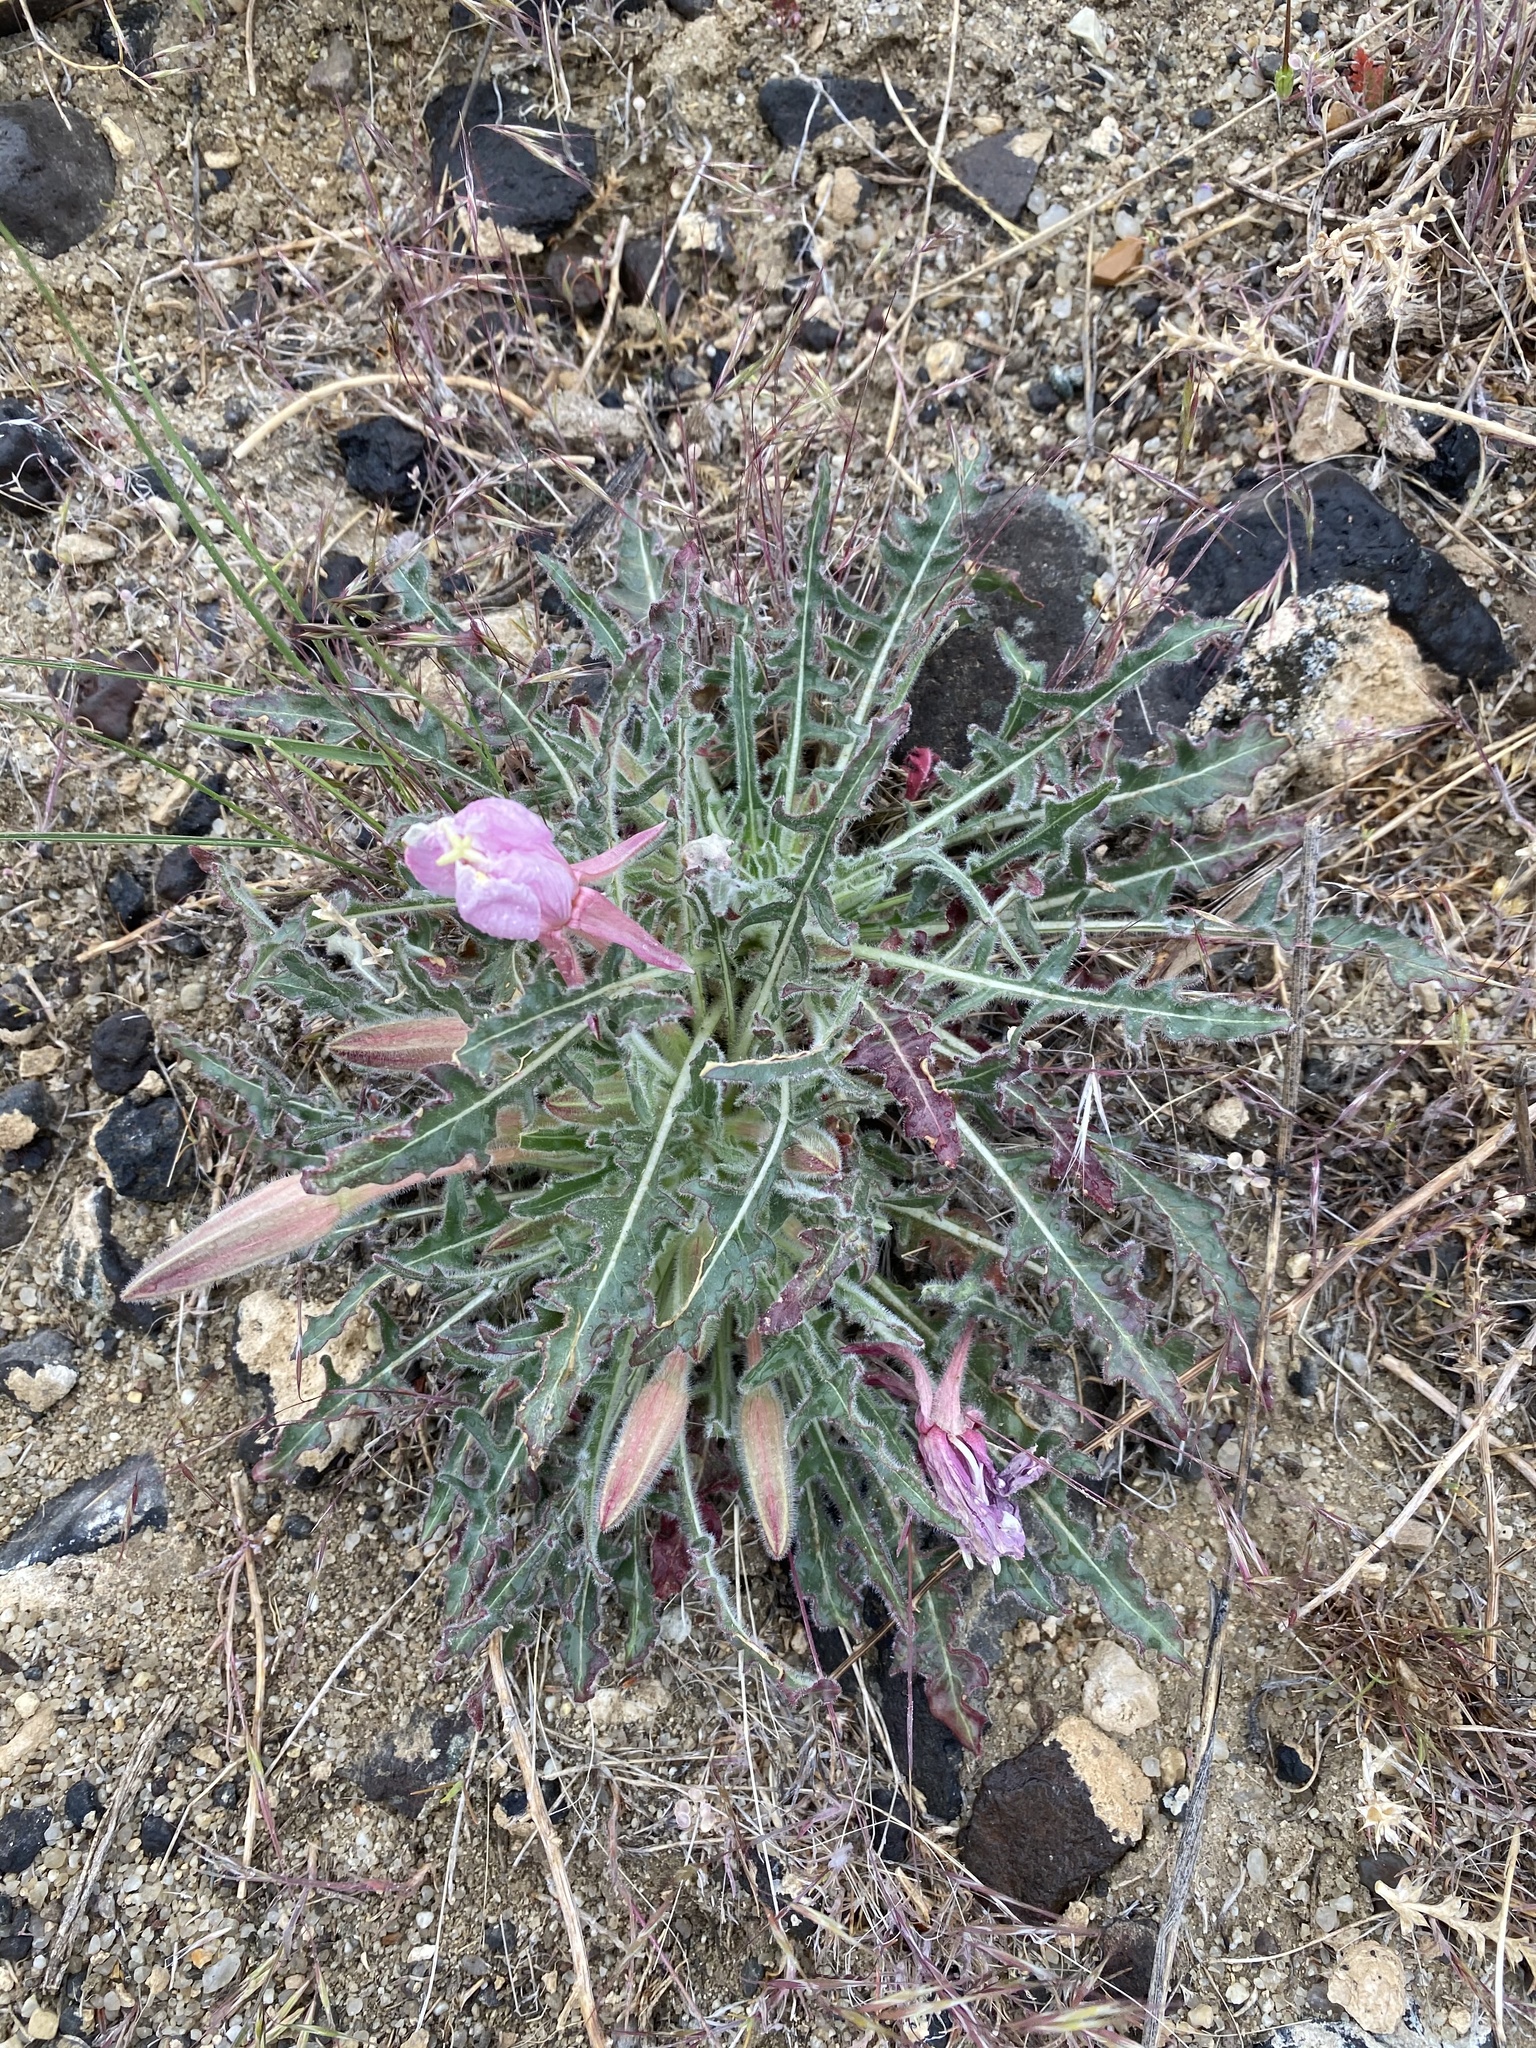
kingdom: Plantae
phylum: Tracheophyta
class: Magnoliopsida
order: Myrtales
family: Onagraceae
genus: Oenothera
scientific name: Oenothera cespitosa
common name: Tufted evening-primrose
